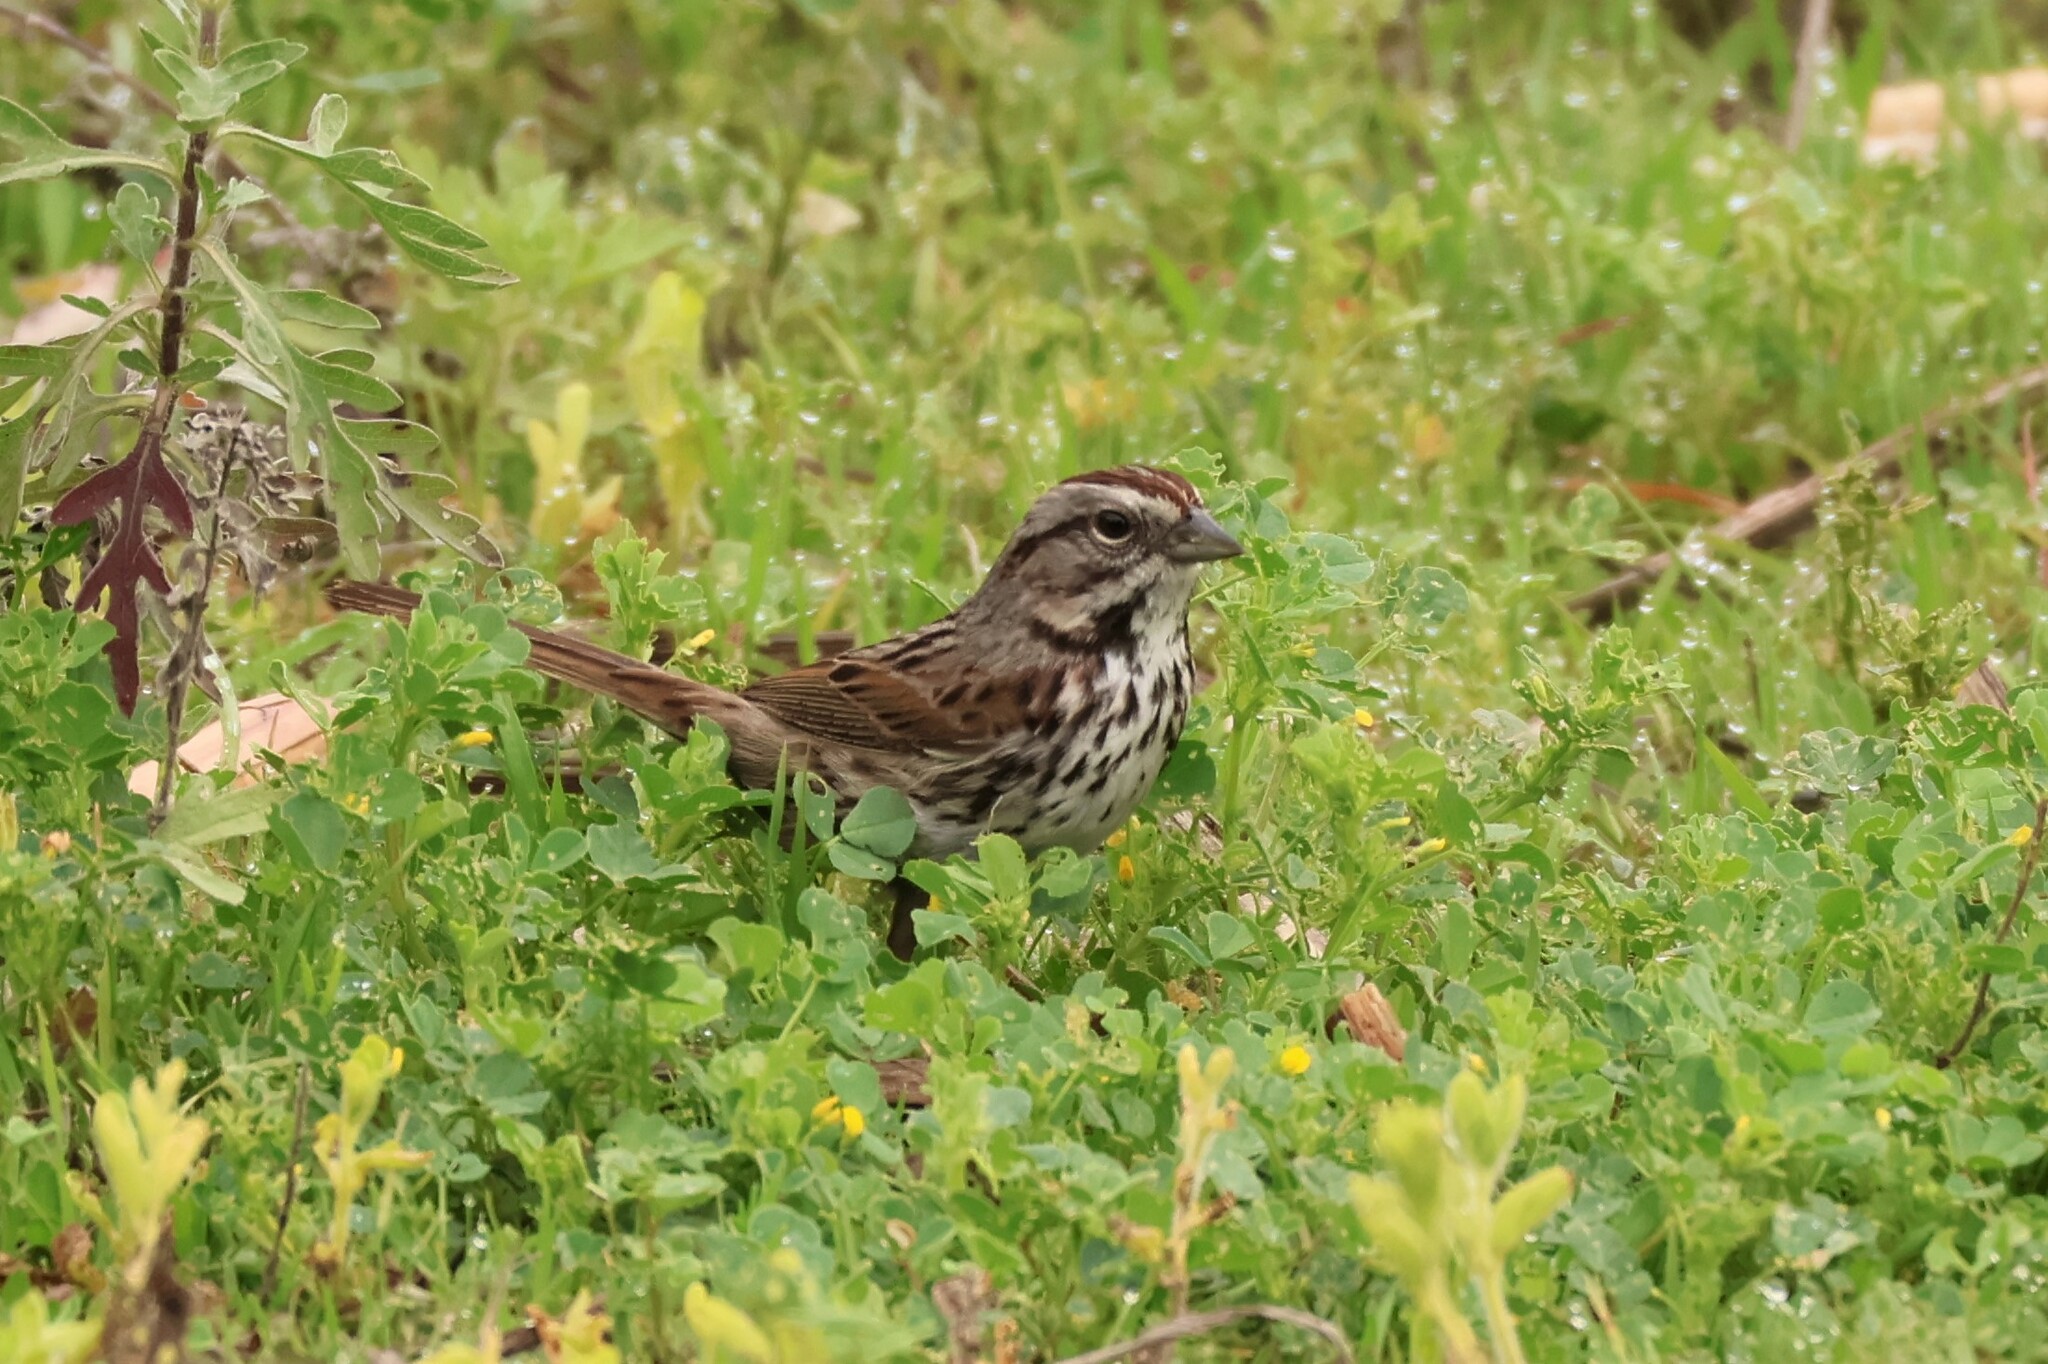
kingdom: Animalia
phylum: Chordata
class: Aves
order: Passeriformes
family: Passerellidae
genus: Melospiza
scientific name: Melospiza melodia
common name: Song sparrow
